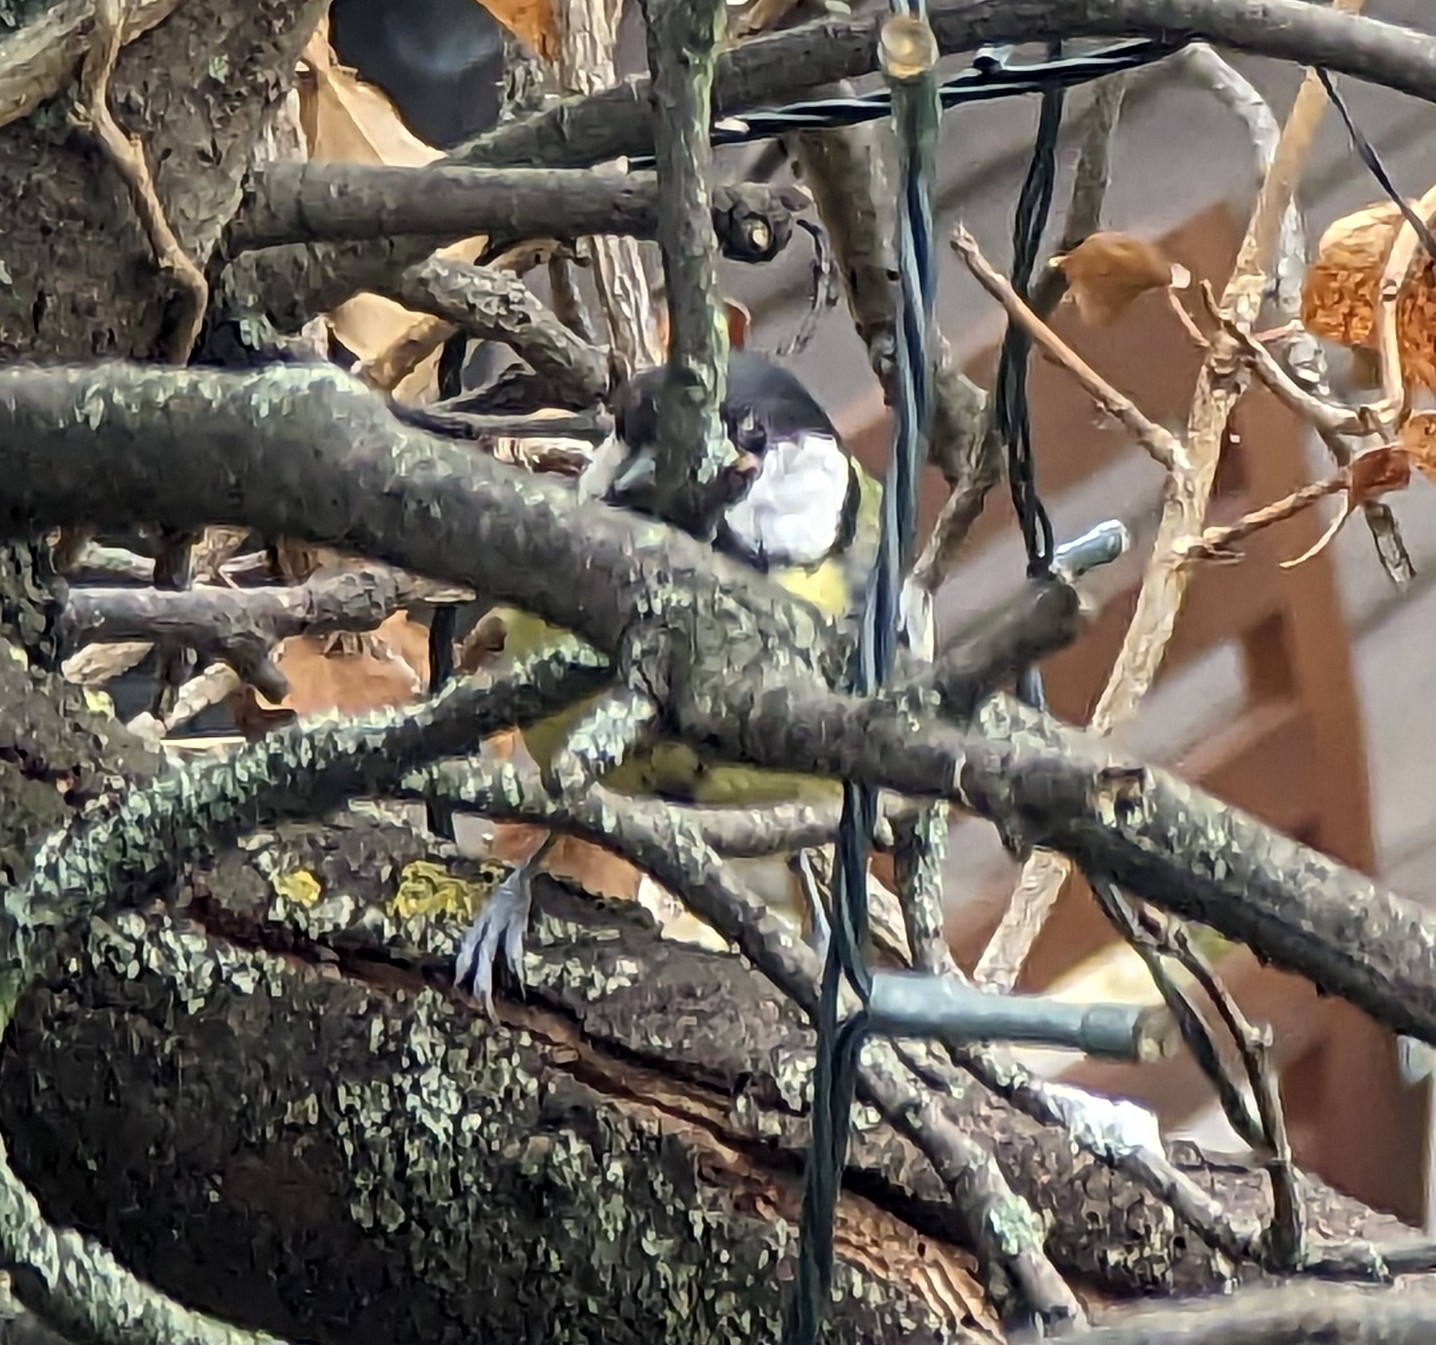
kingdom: Animalia
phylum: Chordata
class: Aves
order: Passeriformes
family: Paridae
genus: Parus
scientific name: Parus major
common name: Great tit
